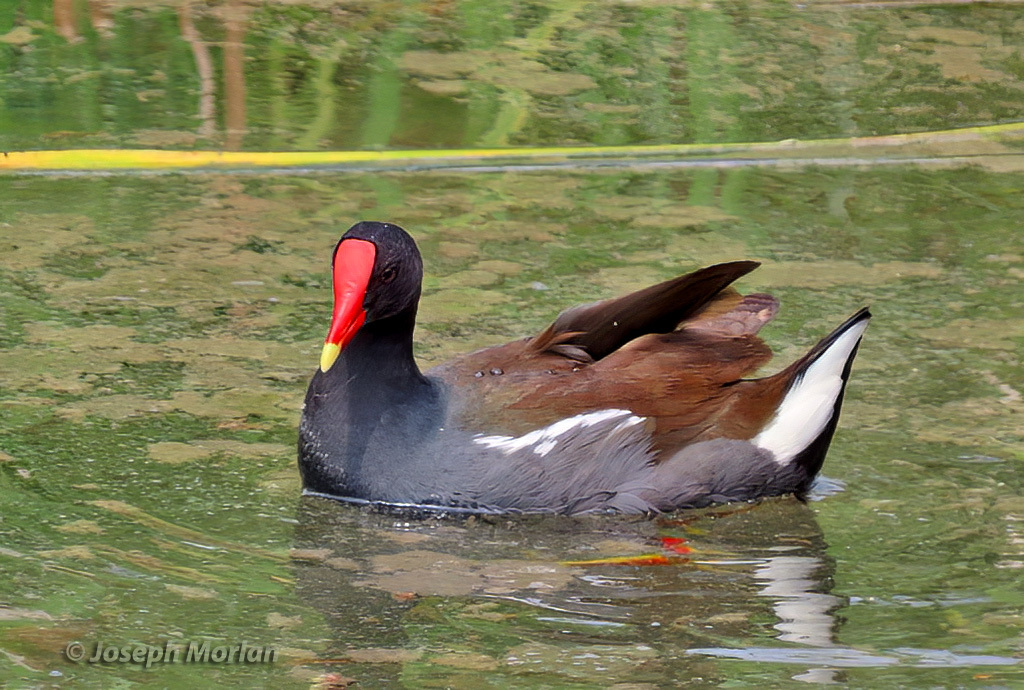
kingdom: Animalia
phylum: Chordata
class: Aves
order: Gruiformes
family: Rallidae
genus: Gallinula
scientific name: Gallinula chloropus
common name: Common moorhen
